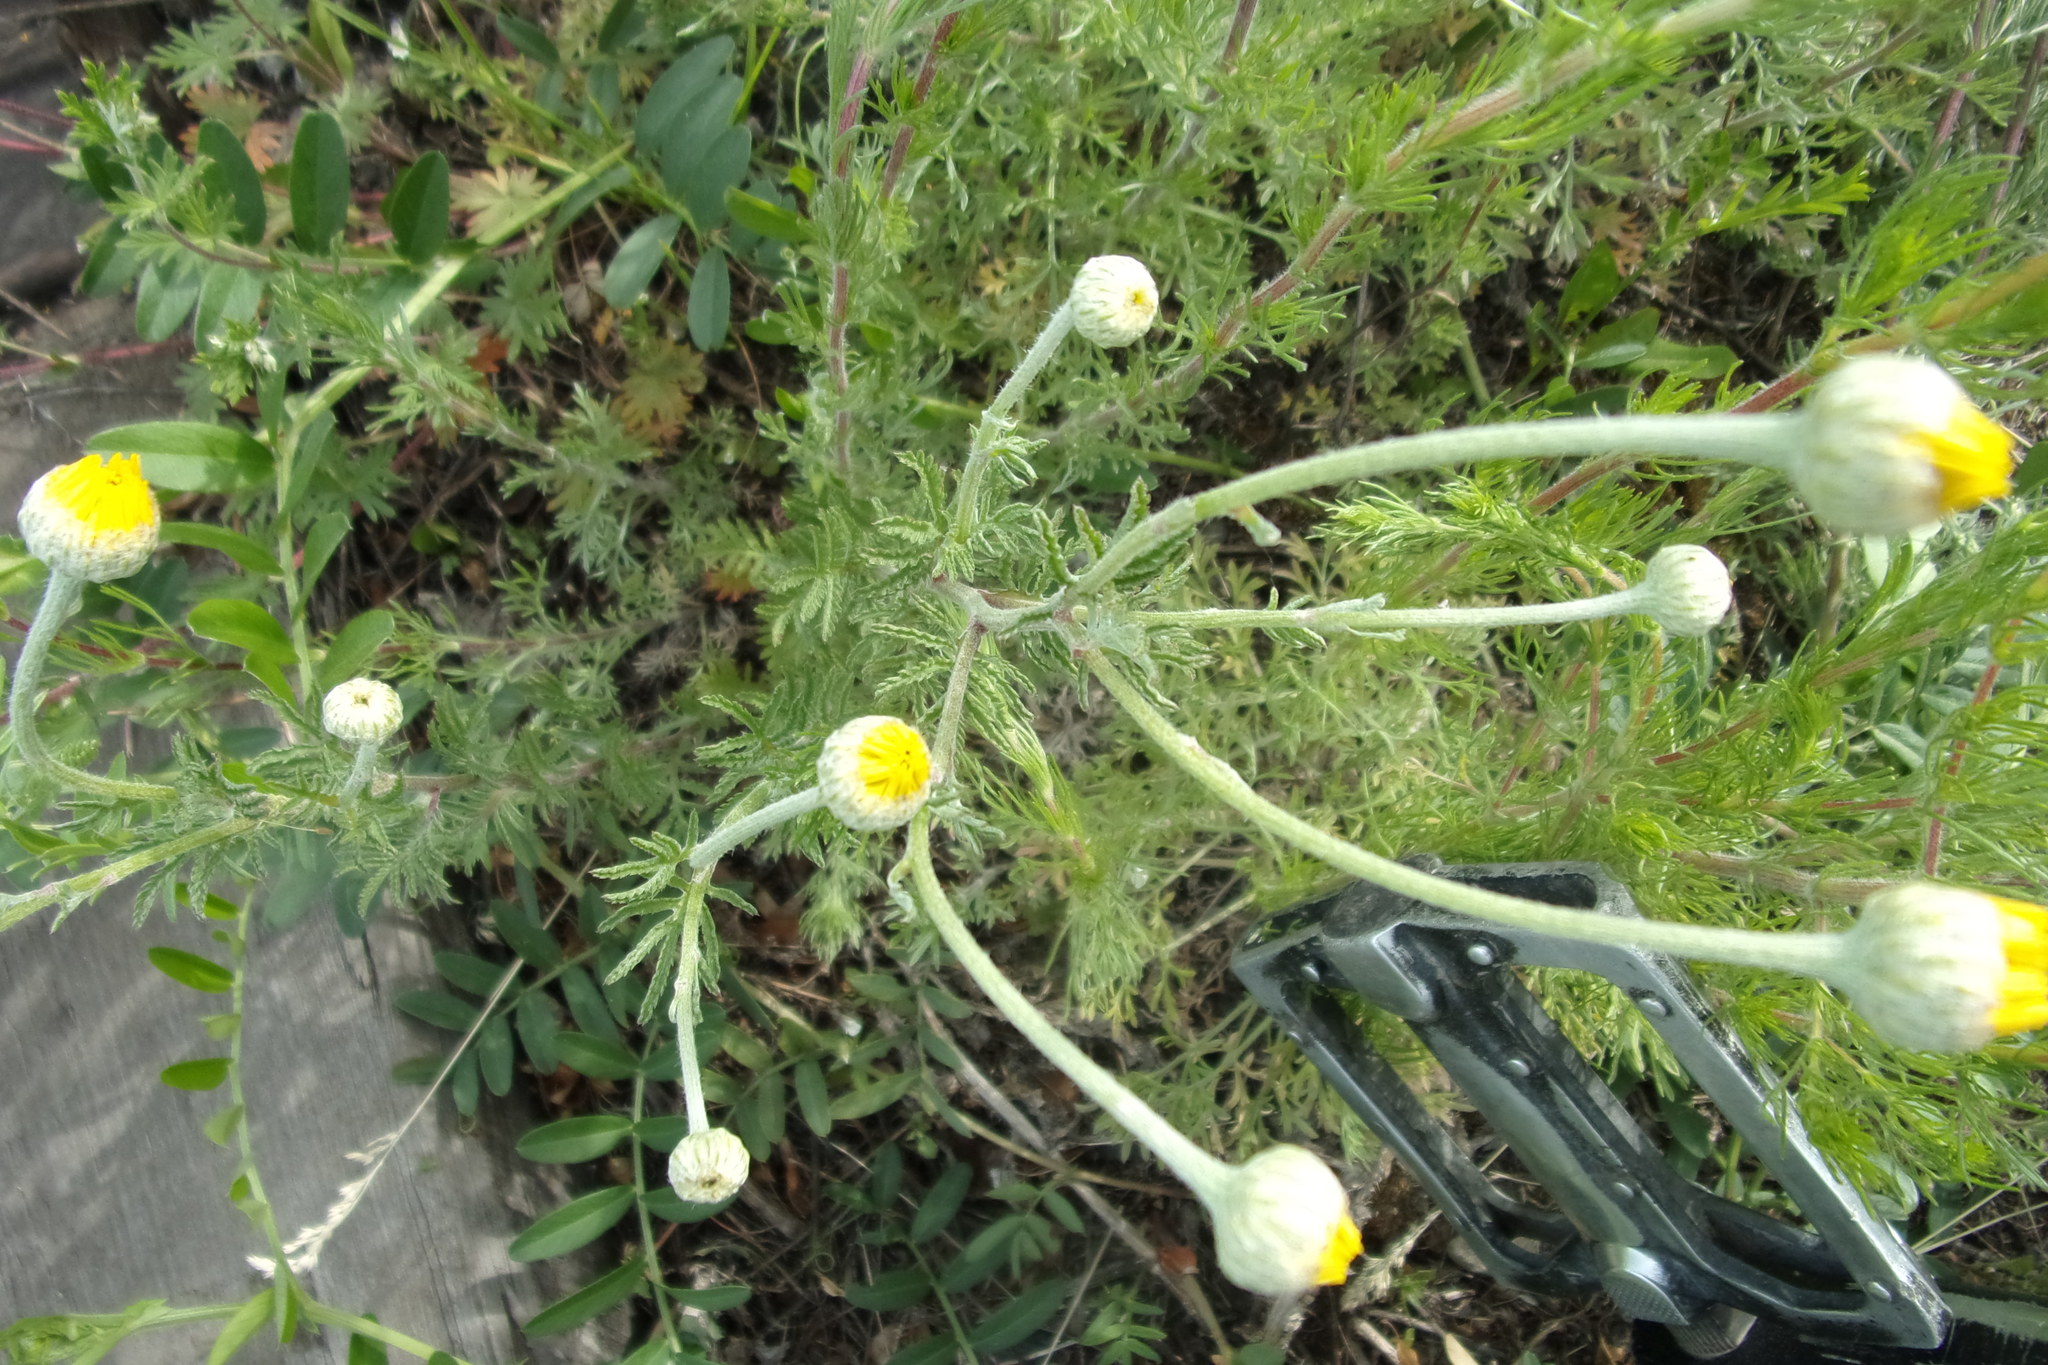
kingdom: Plantae
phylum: Tracheophyta
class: Magnoliopsida
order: Asterales
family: Asteraceae
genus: Cota
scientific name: Cota tinctoria
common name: Golden chamomile
